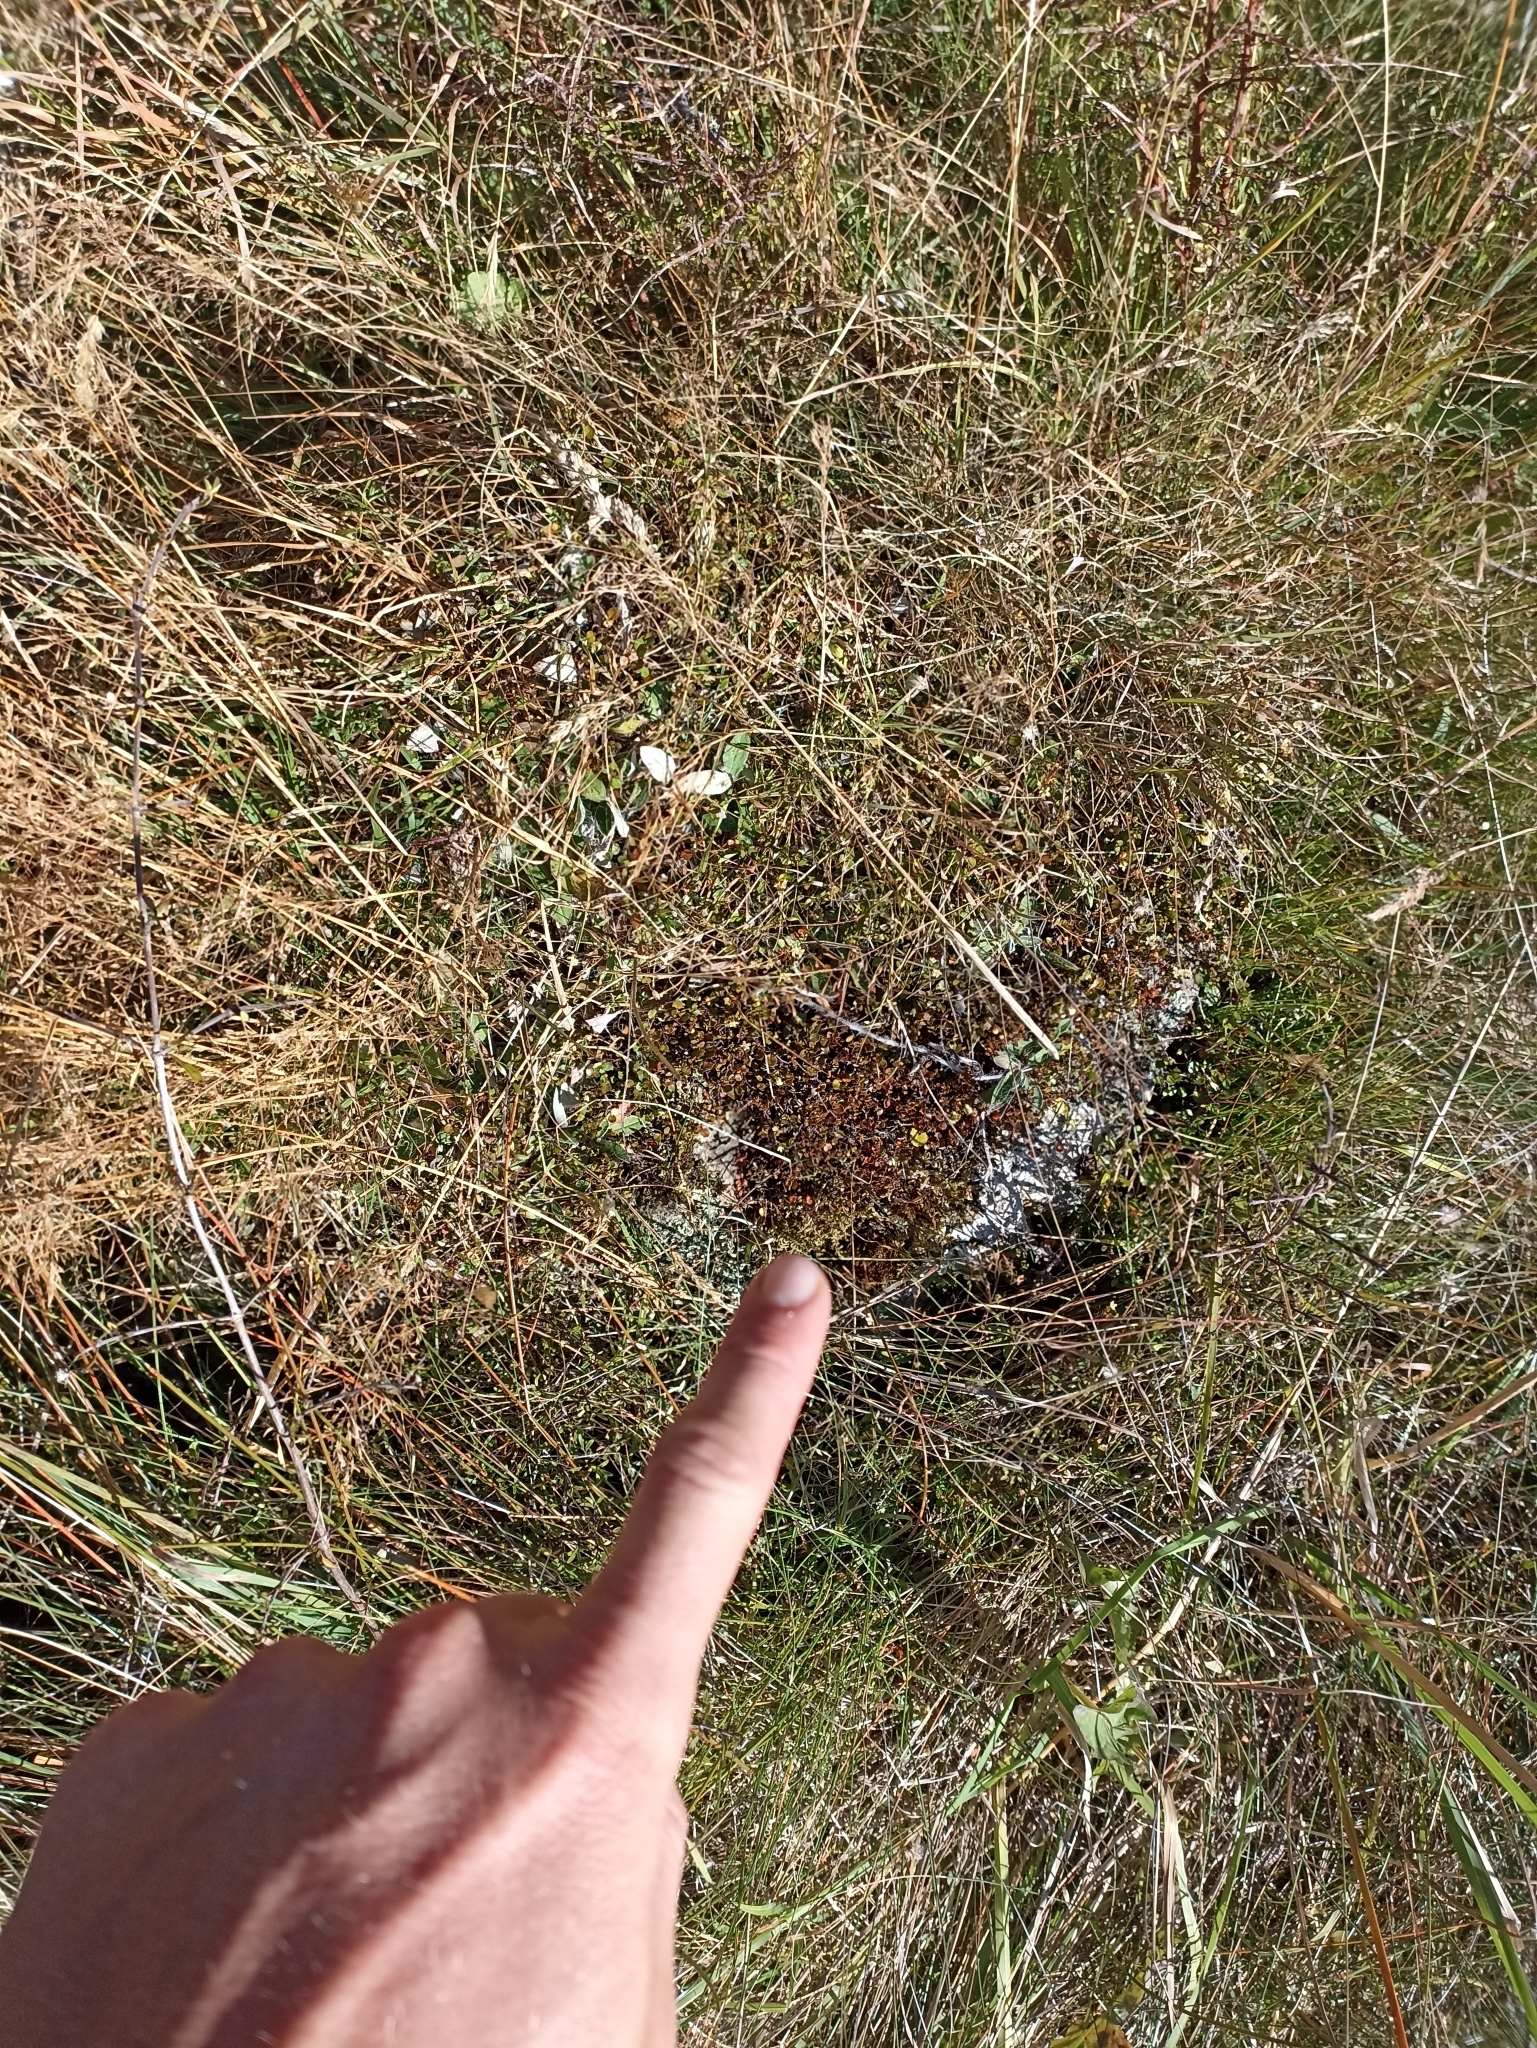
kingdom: Plantae
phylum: Tracheophyta
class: Magnoliopsida
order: Caryophyllales
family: Polygonaceae
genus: Muehlenbeckia
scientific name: Muehlenbeckia axillaris
